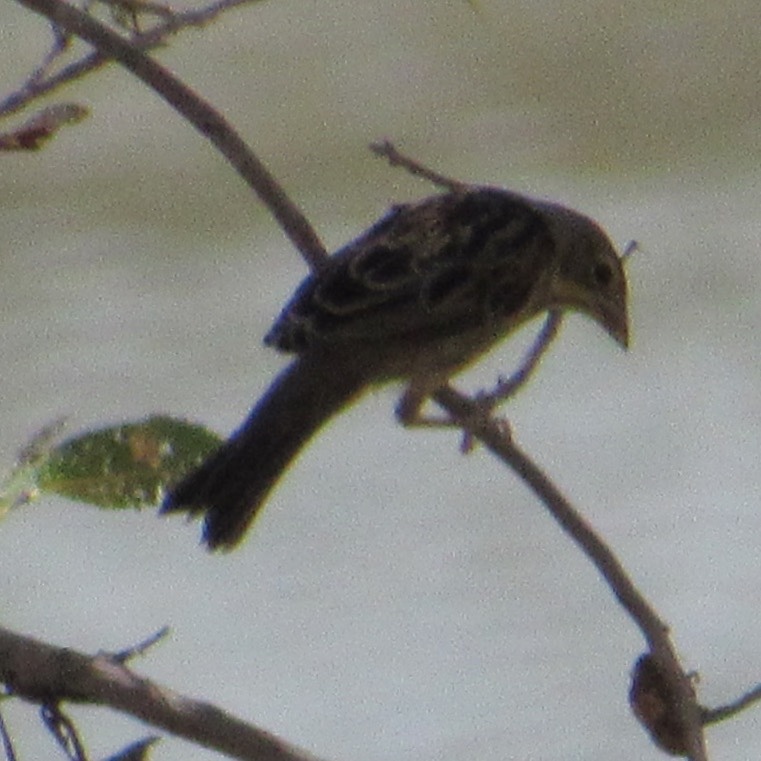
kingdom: Animalia
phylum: Chordata
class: Aves
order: Passeriformes
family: Cardinalidae
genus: Spiza
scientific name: Spiza americana
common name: Dickcissel
